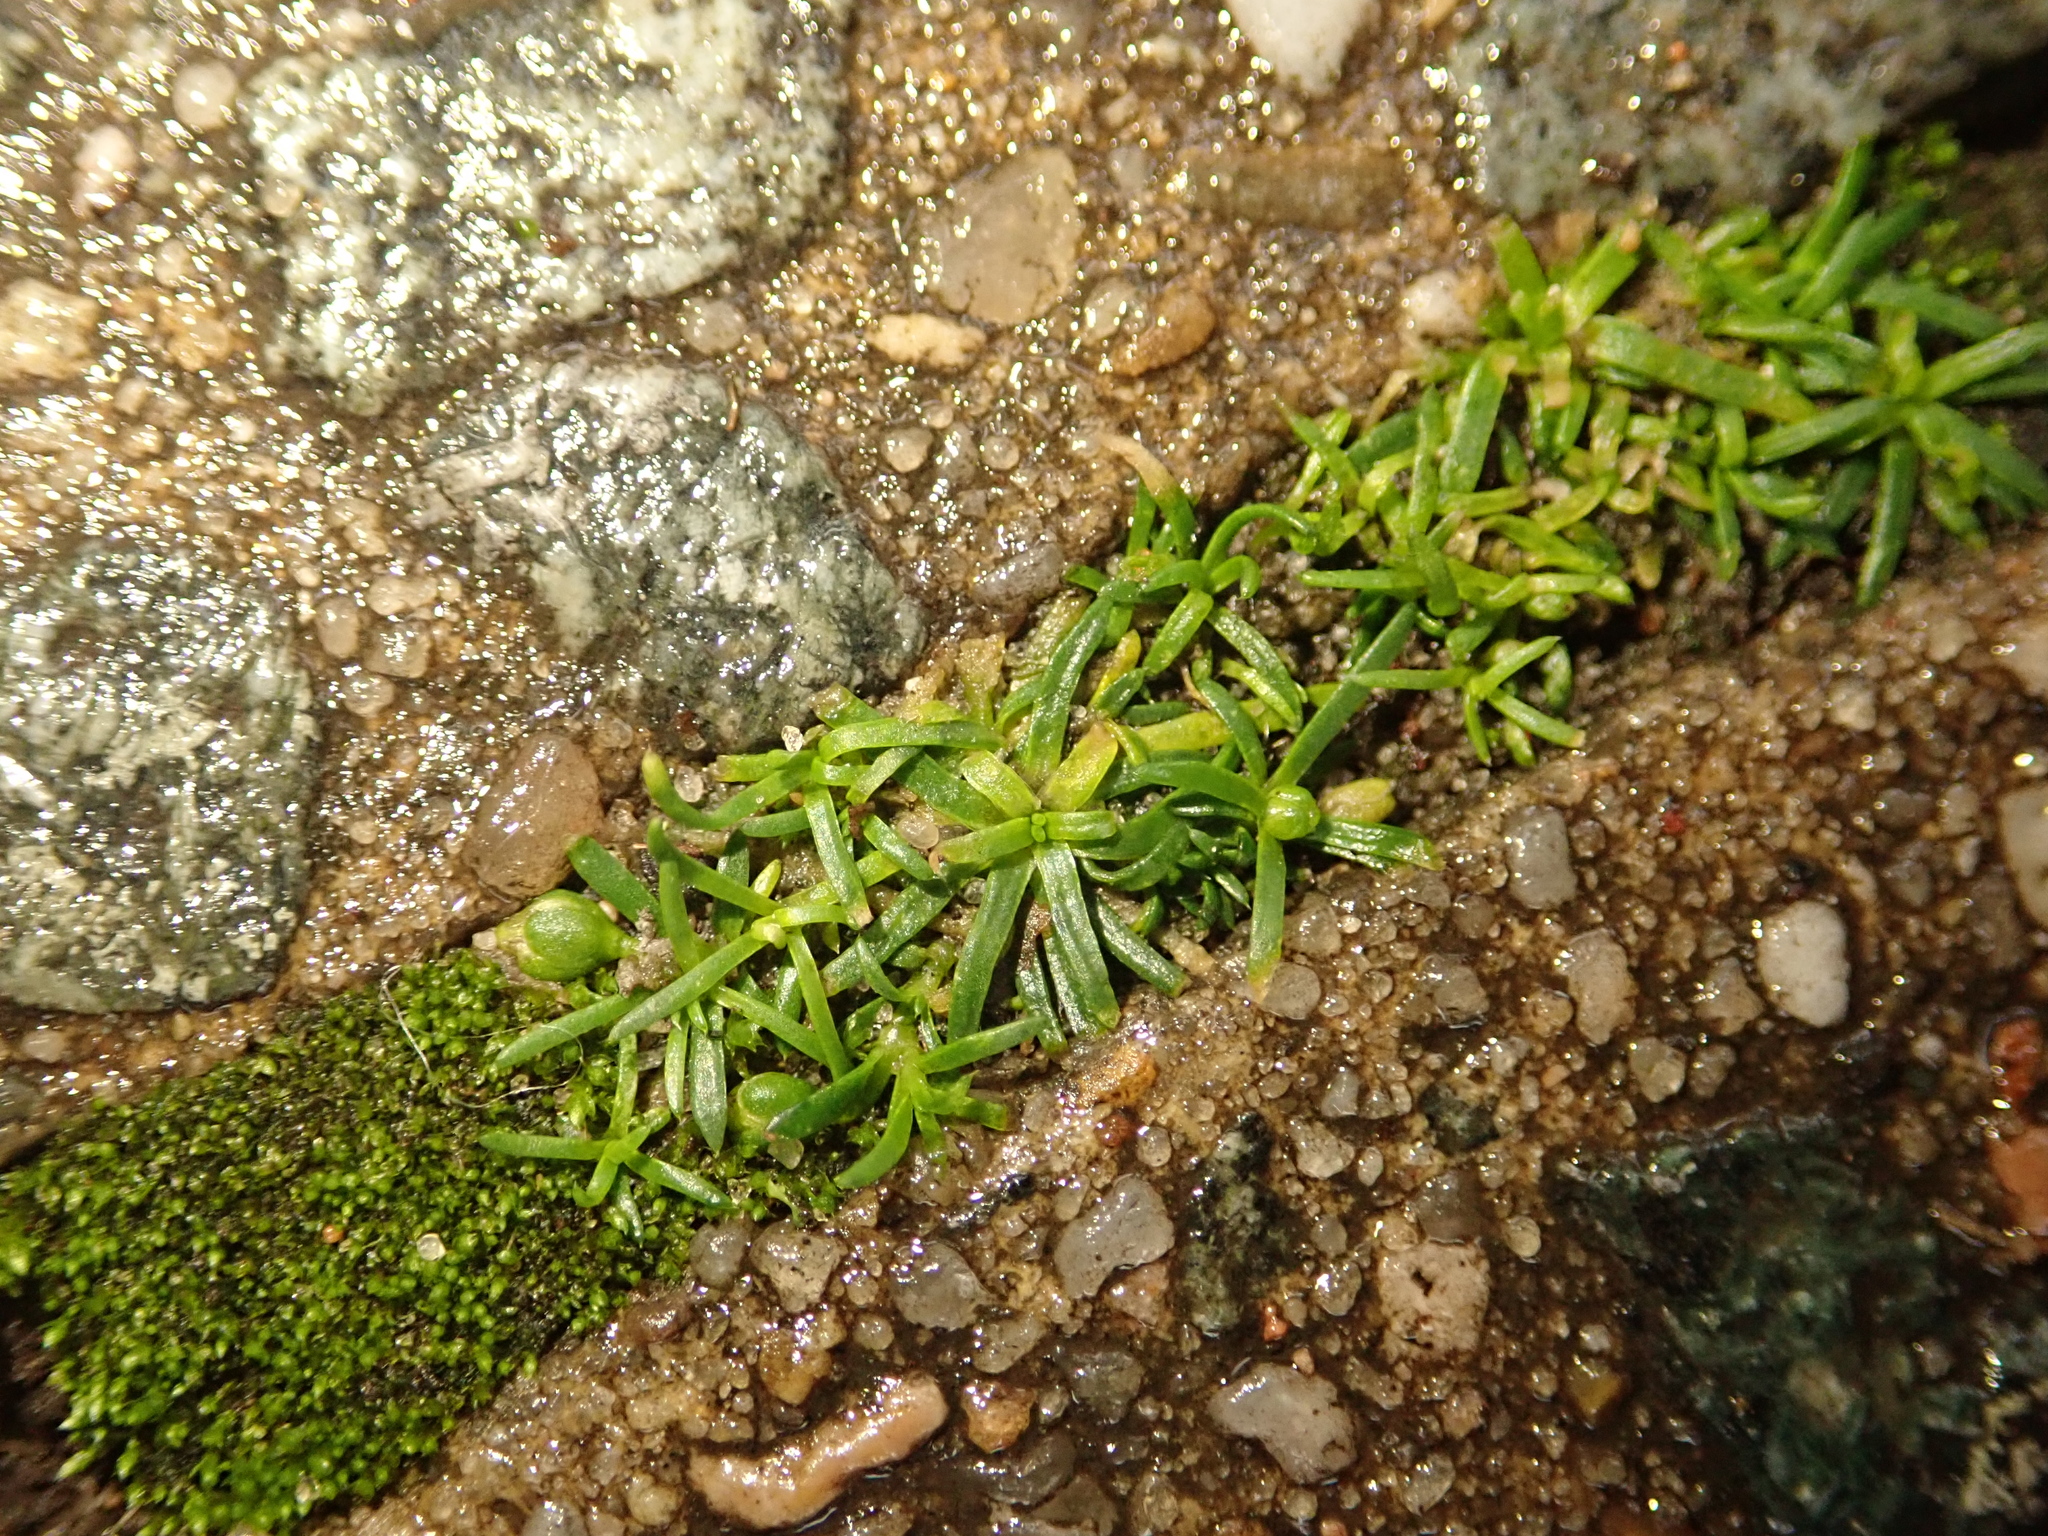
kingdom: Plantae
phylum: Tracheophyta
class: Magnoliopsida
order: Caryophyllales
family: Caryophyllaceae
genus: Sagina
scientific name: Sagina procumbens
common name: Procumbent pearlwort
